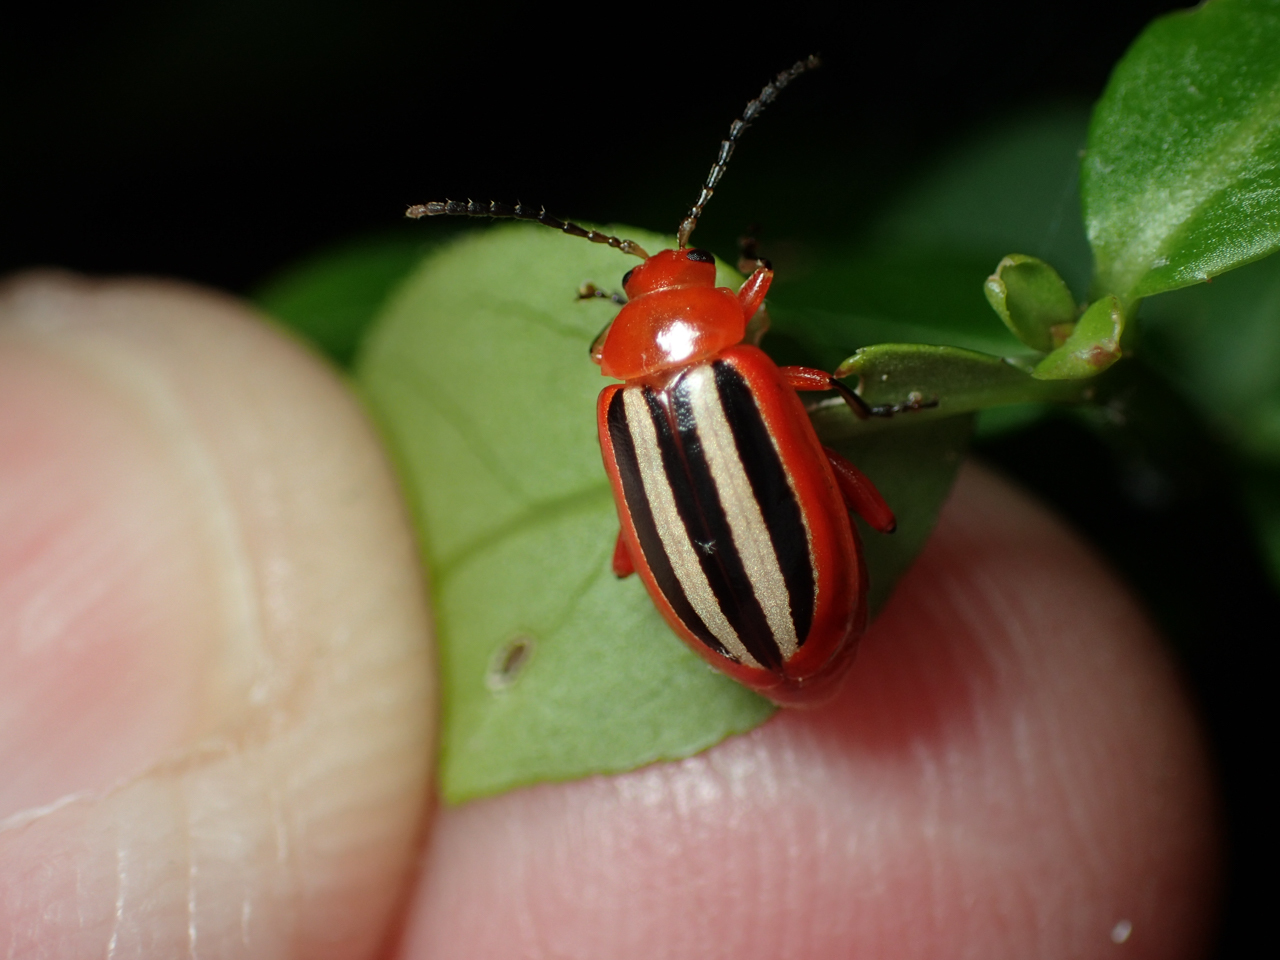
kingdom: Animalia
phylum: Arthropoda
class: Insecta
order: Coleoptera
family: Chrysomelidae
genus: Disonycha
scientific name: Disonycha discoidea
